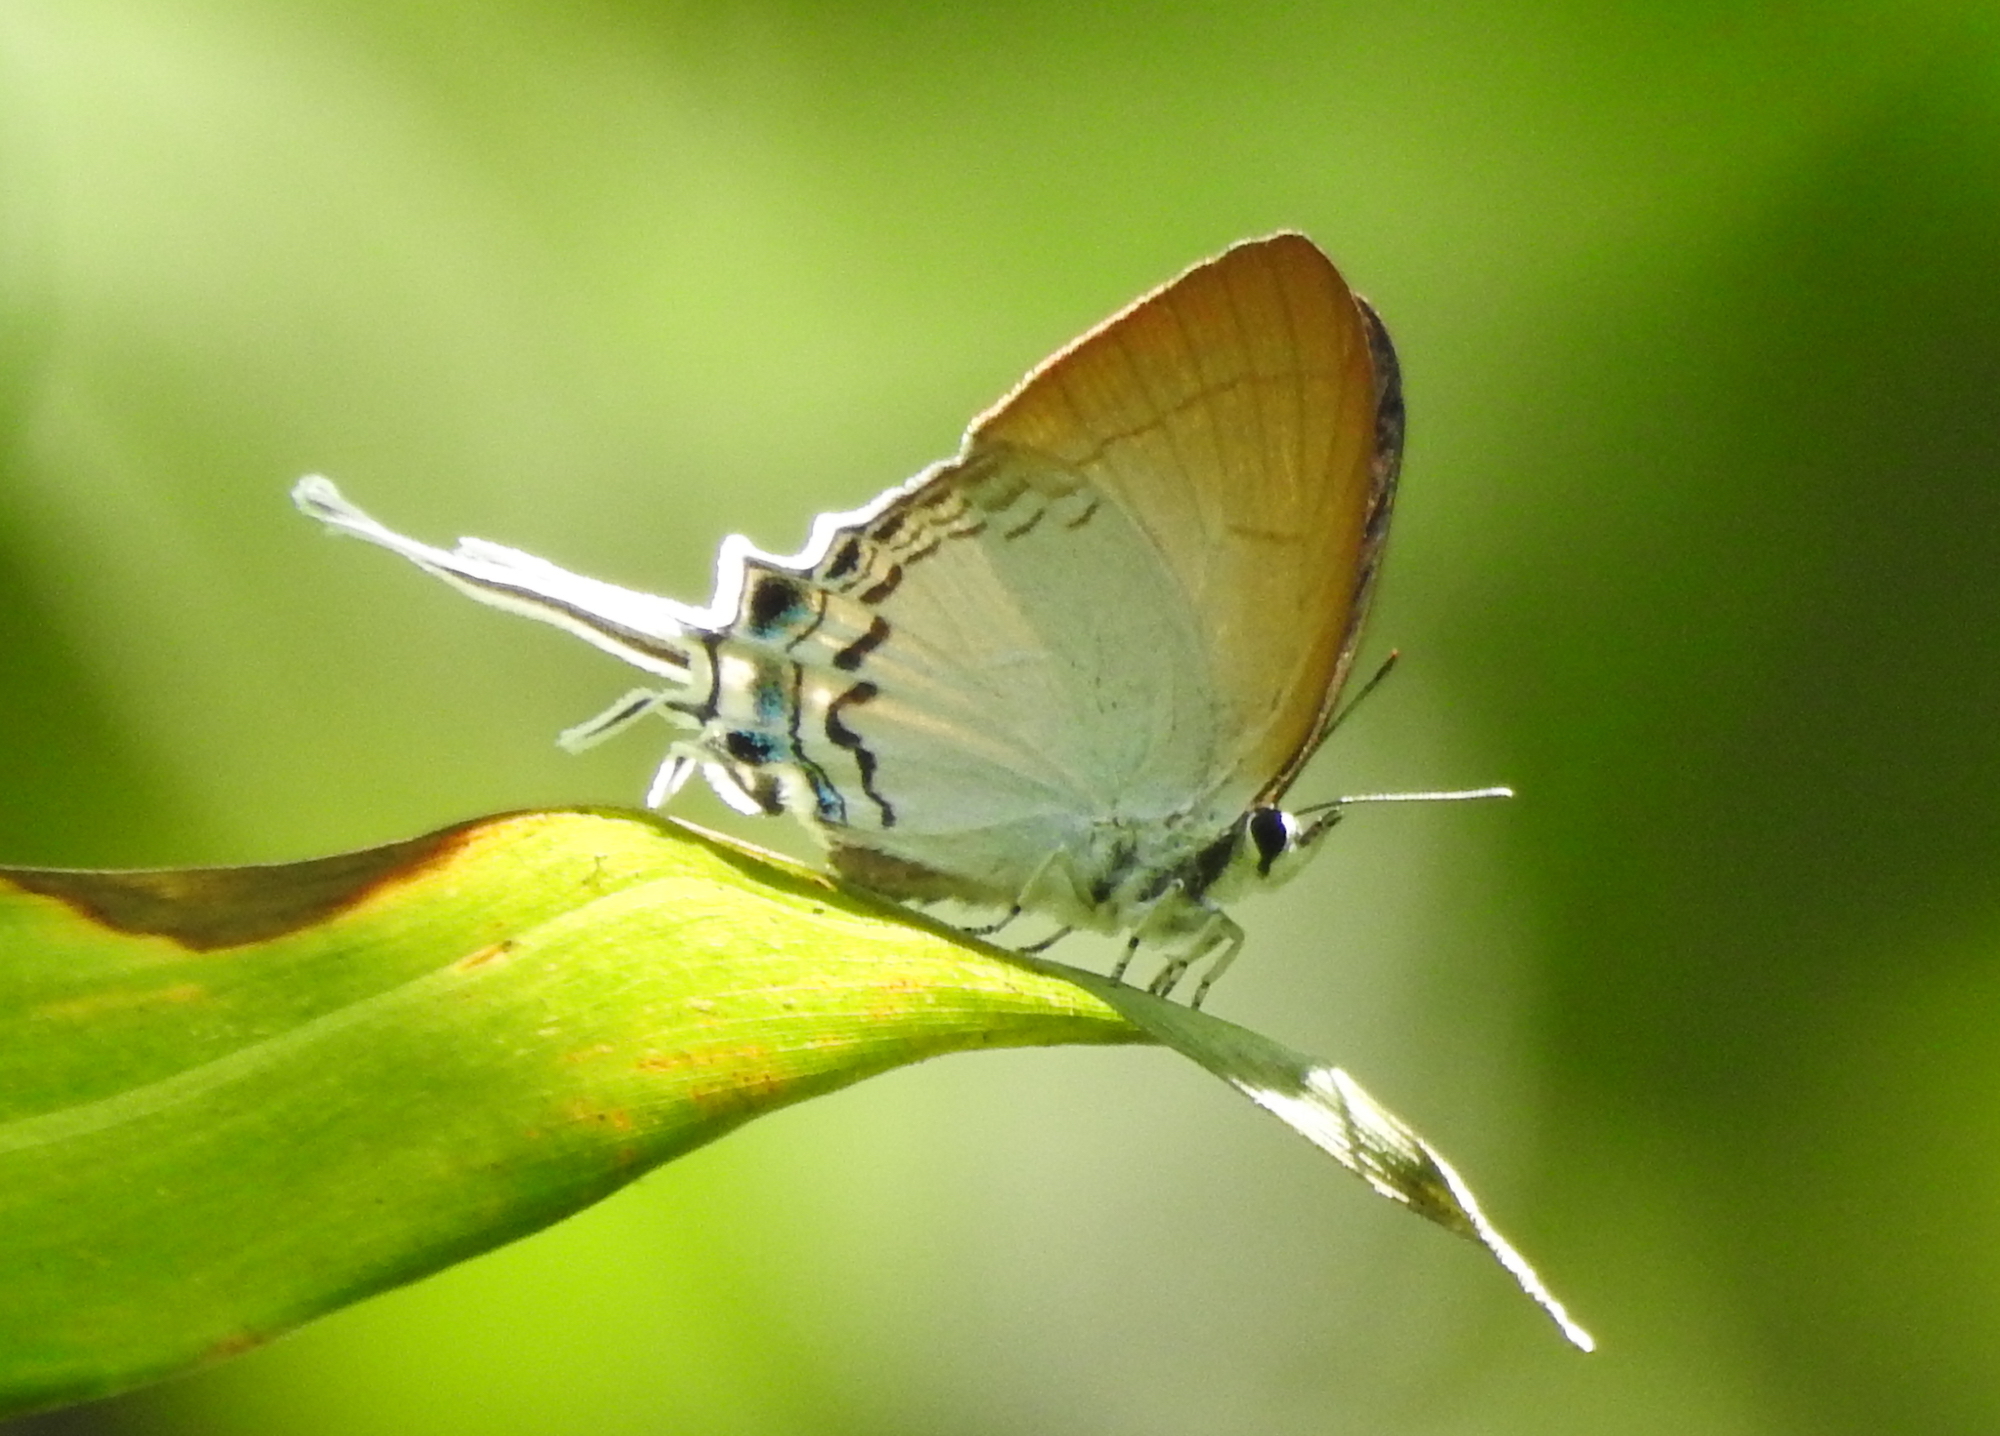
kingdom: Animalia
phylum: Arthropoda
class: Insecta
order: Lepidoptera
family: Lycaenidae
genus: Cheritra
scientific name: Cheritra freja
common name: Common imperial
